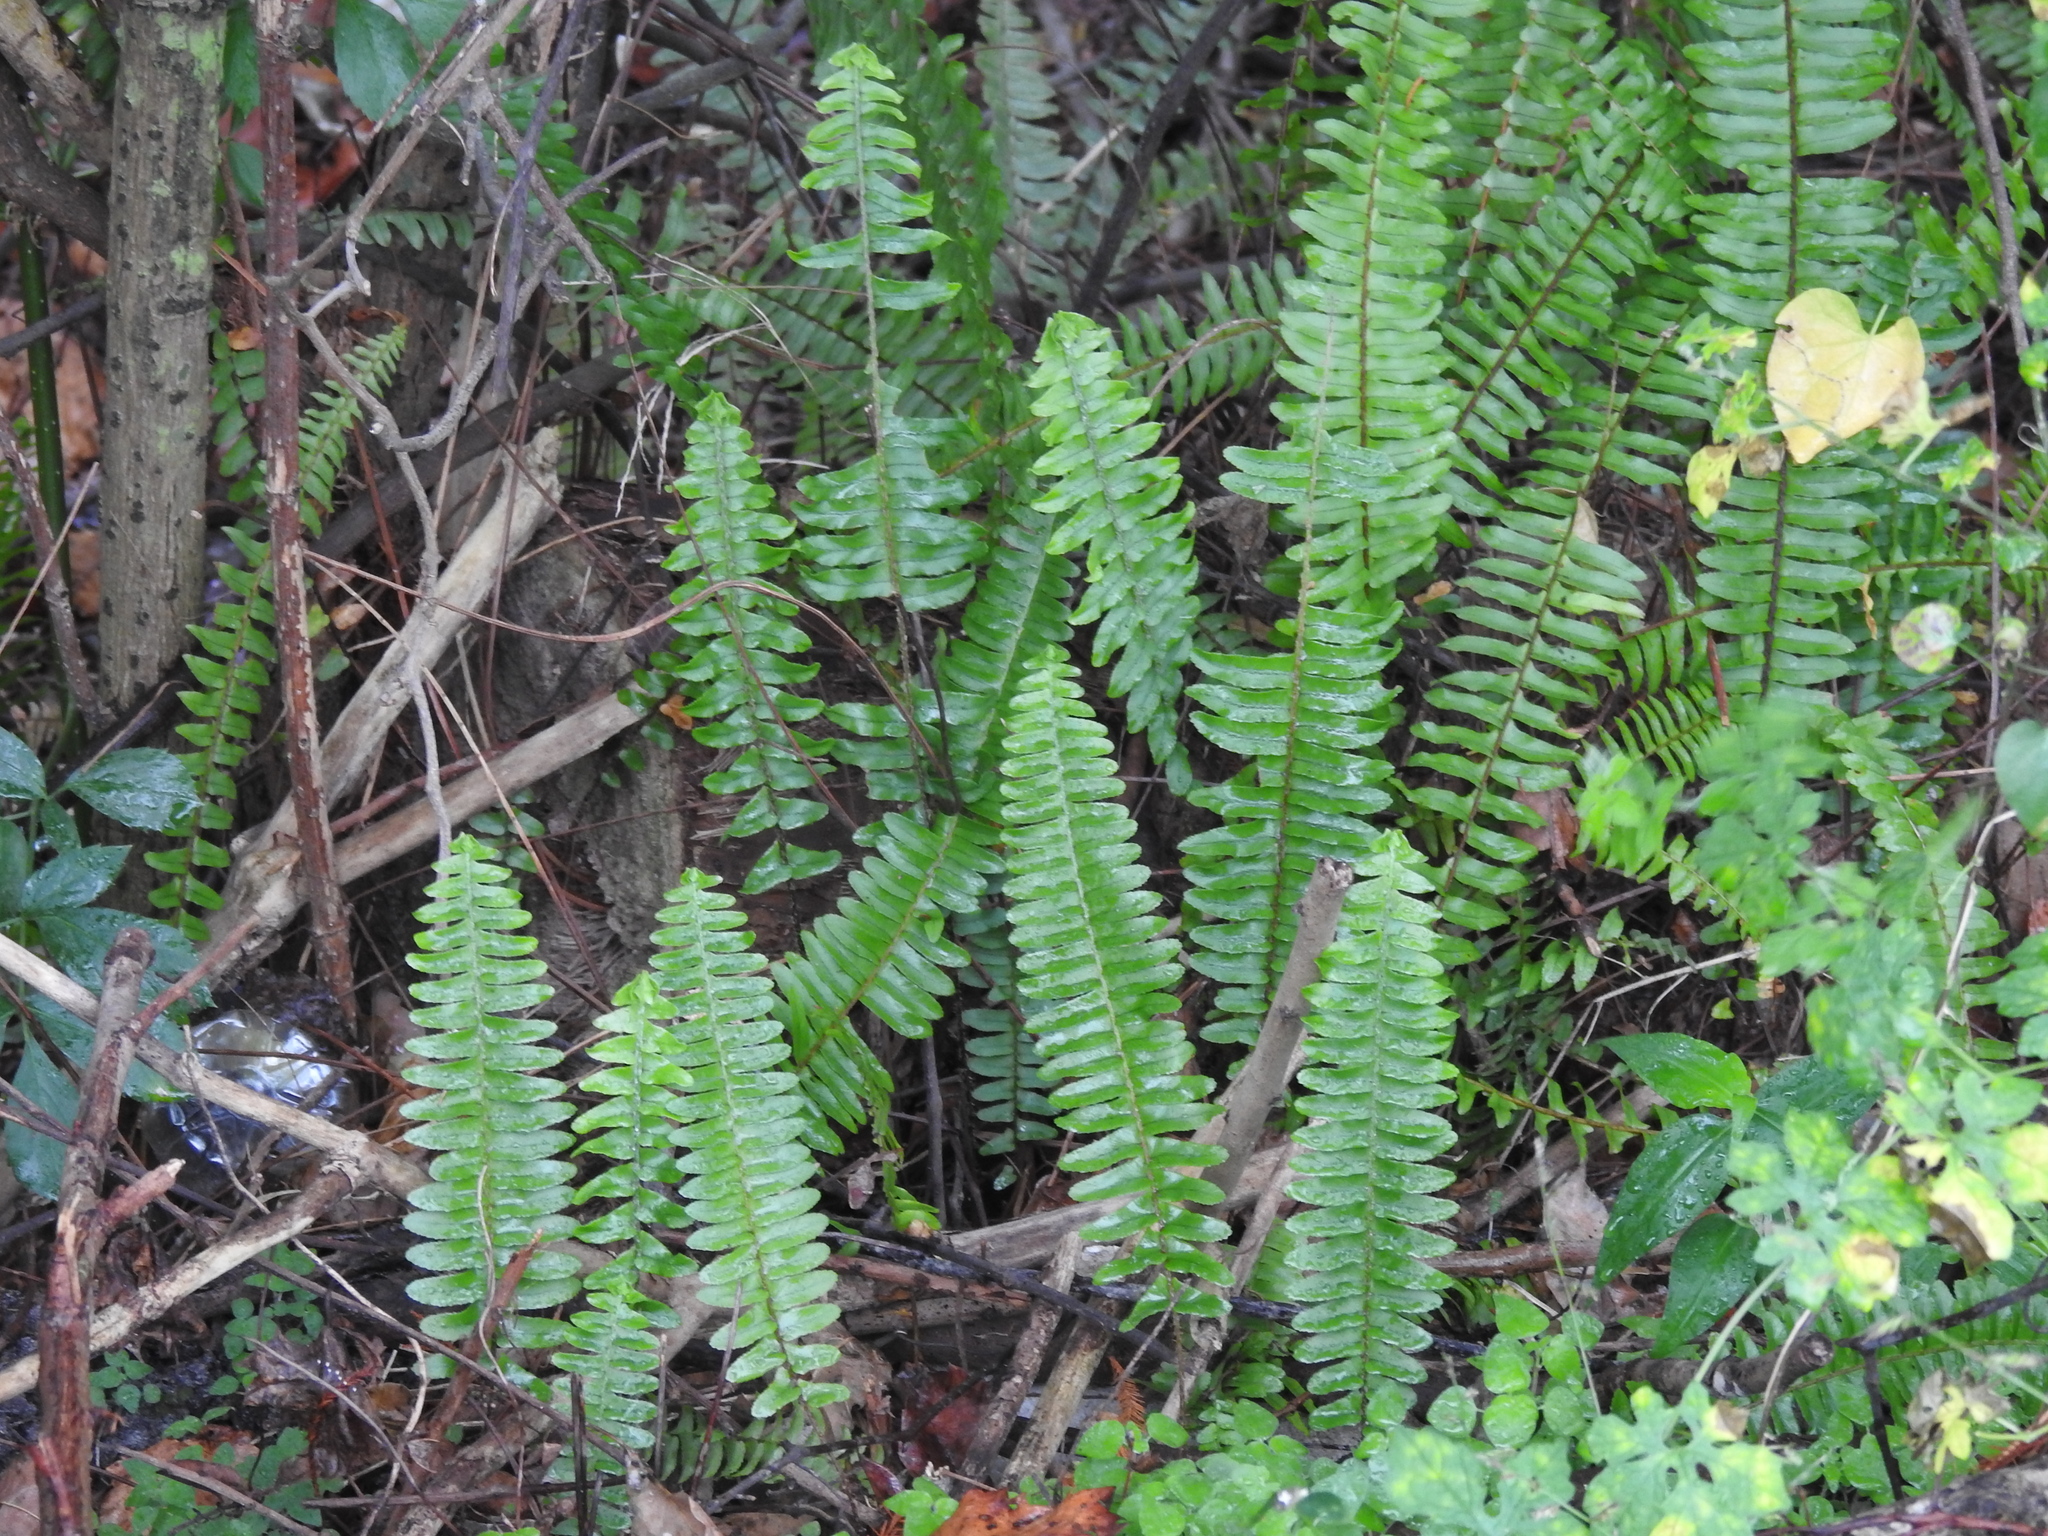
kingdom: Plantae
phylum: Tracheophyta
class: Polypodiopsida
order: Polypodiales
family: Nephrolepidaceae
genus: Nephrolepis
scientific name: Nephrolepis cordifolia
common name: Narrow swordfern
